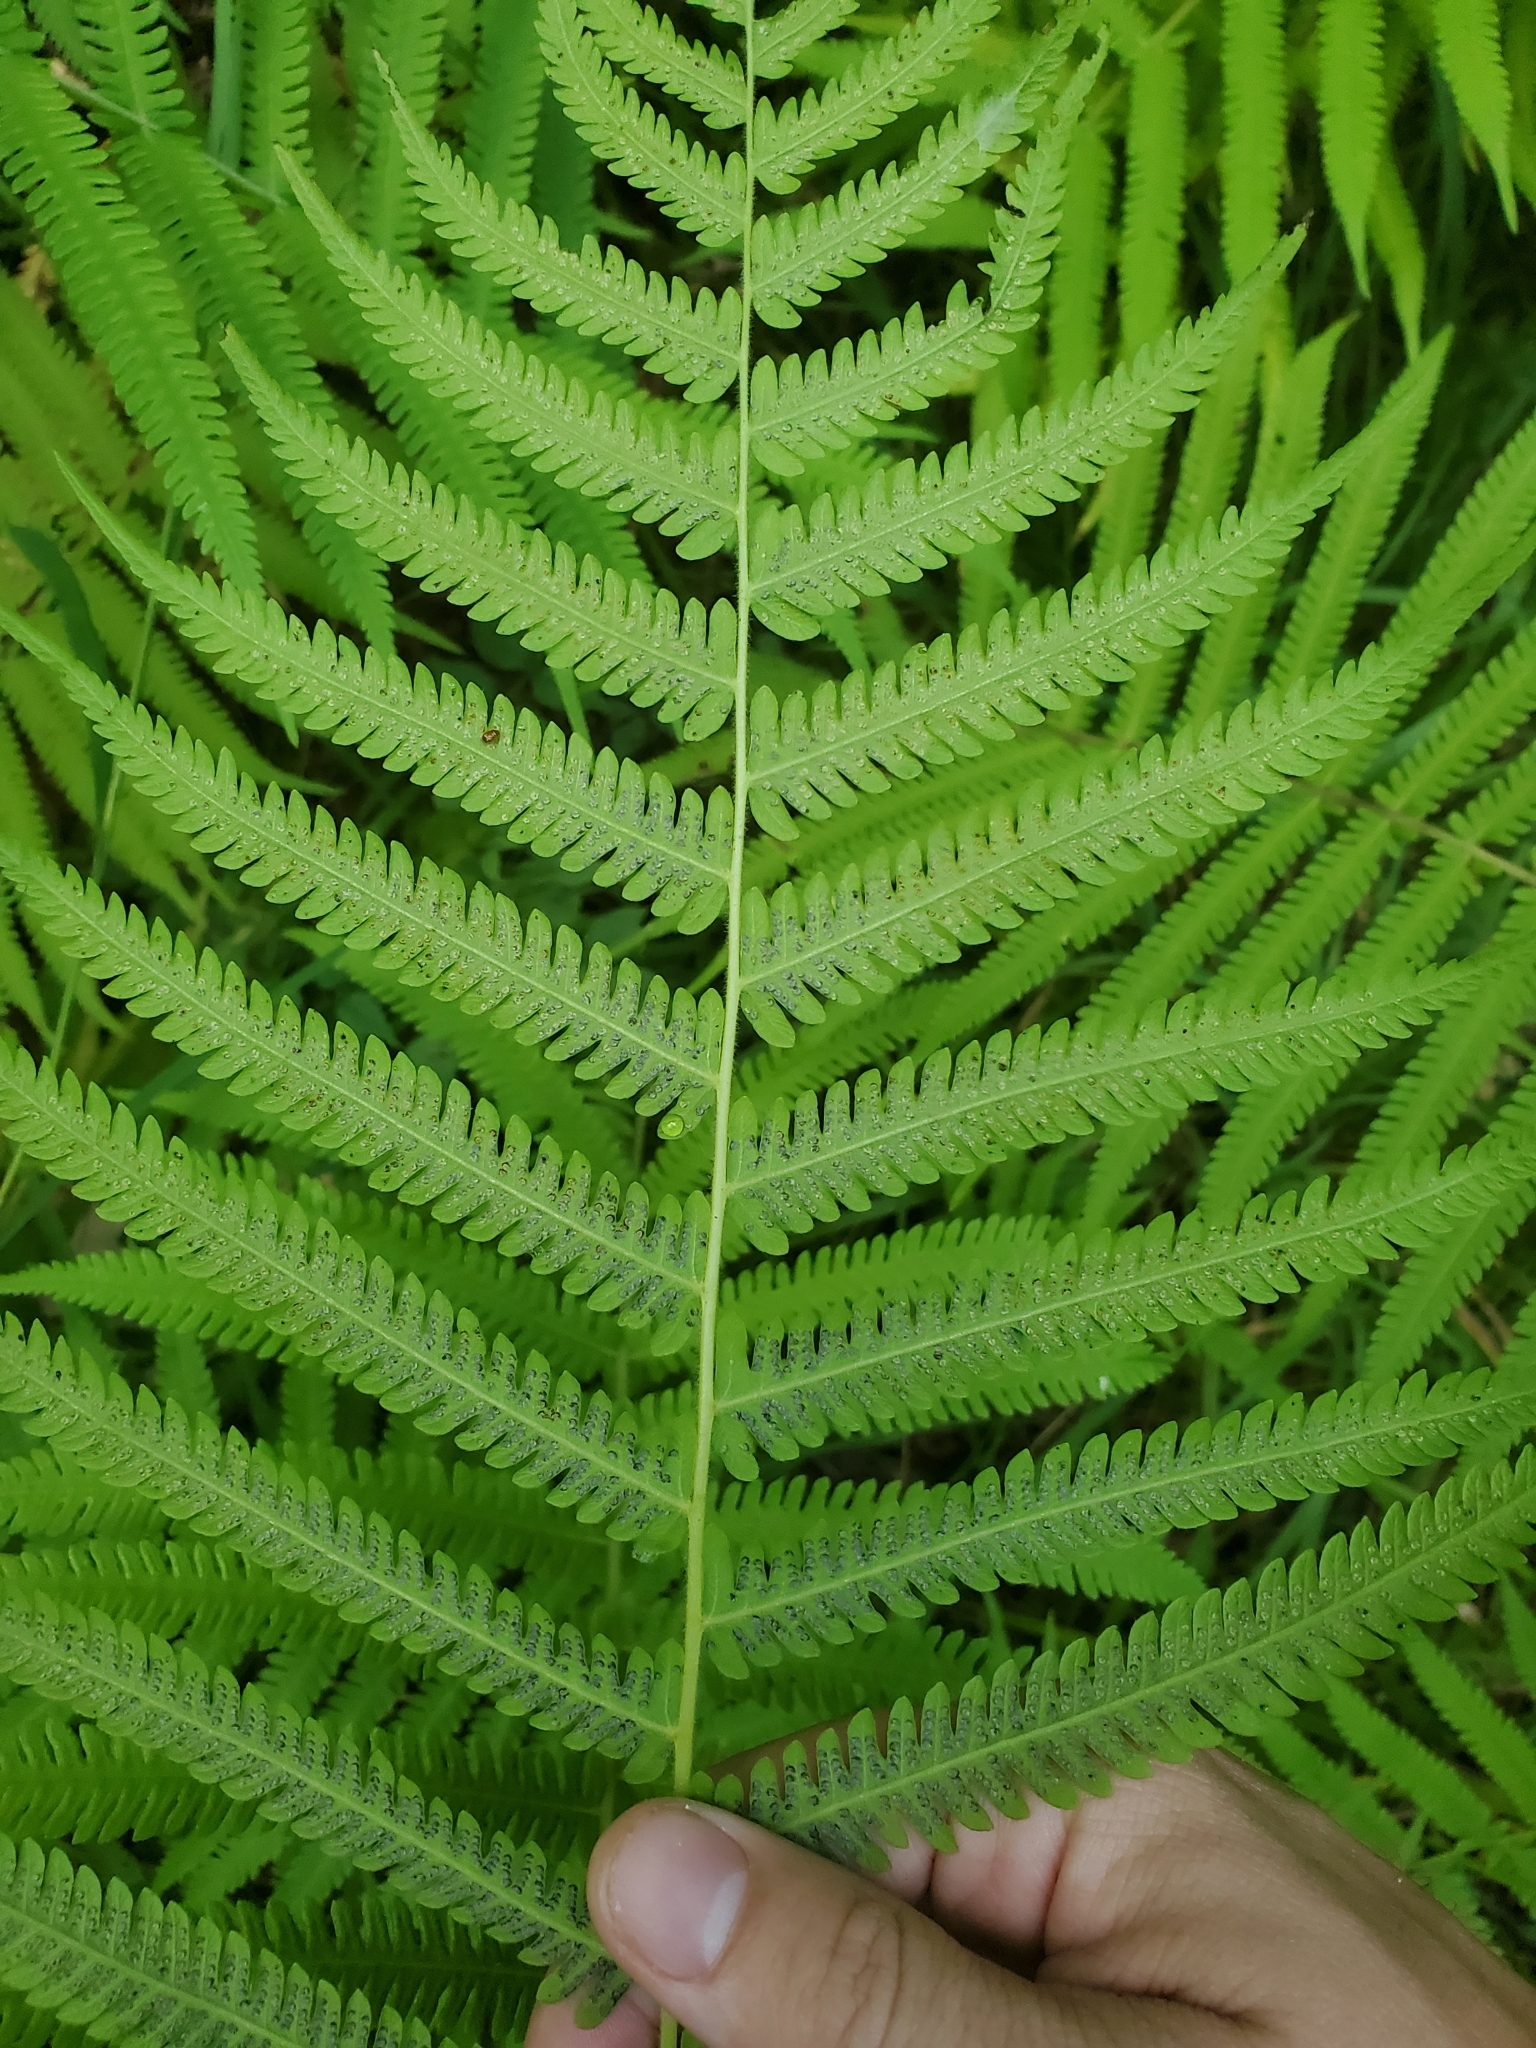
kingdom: Plantae
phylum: Tracheophyta
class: Polypodiopsida
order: Polypodiales
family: Thelypteridaceae
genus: Pelazoneuron
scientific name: Pelazoneuron kunthii
